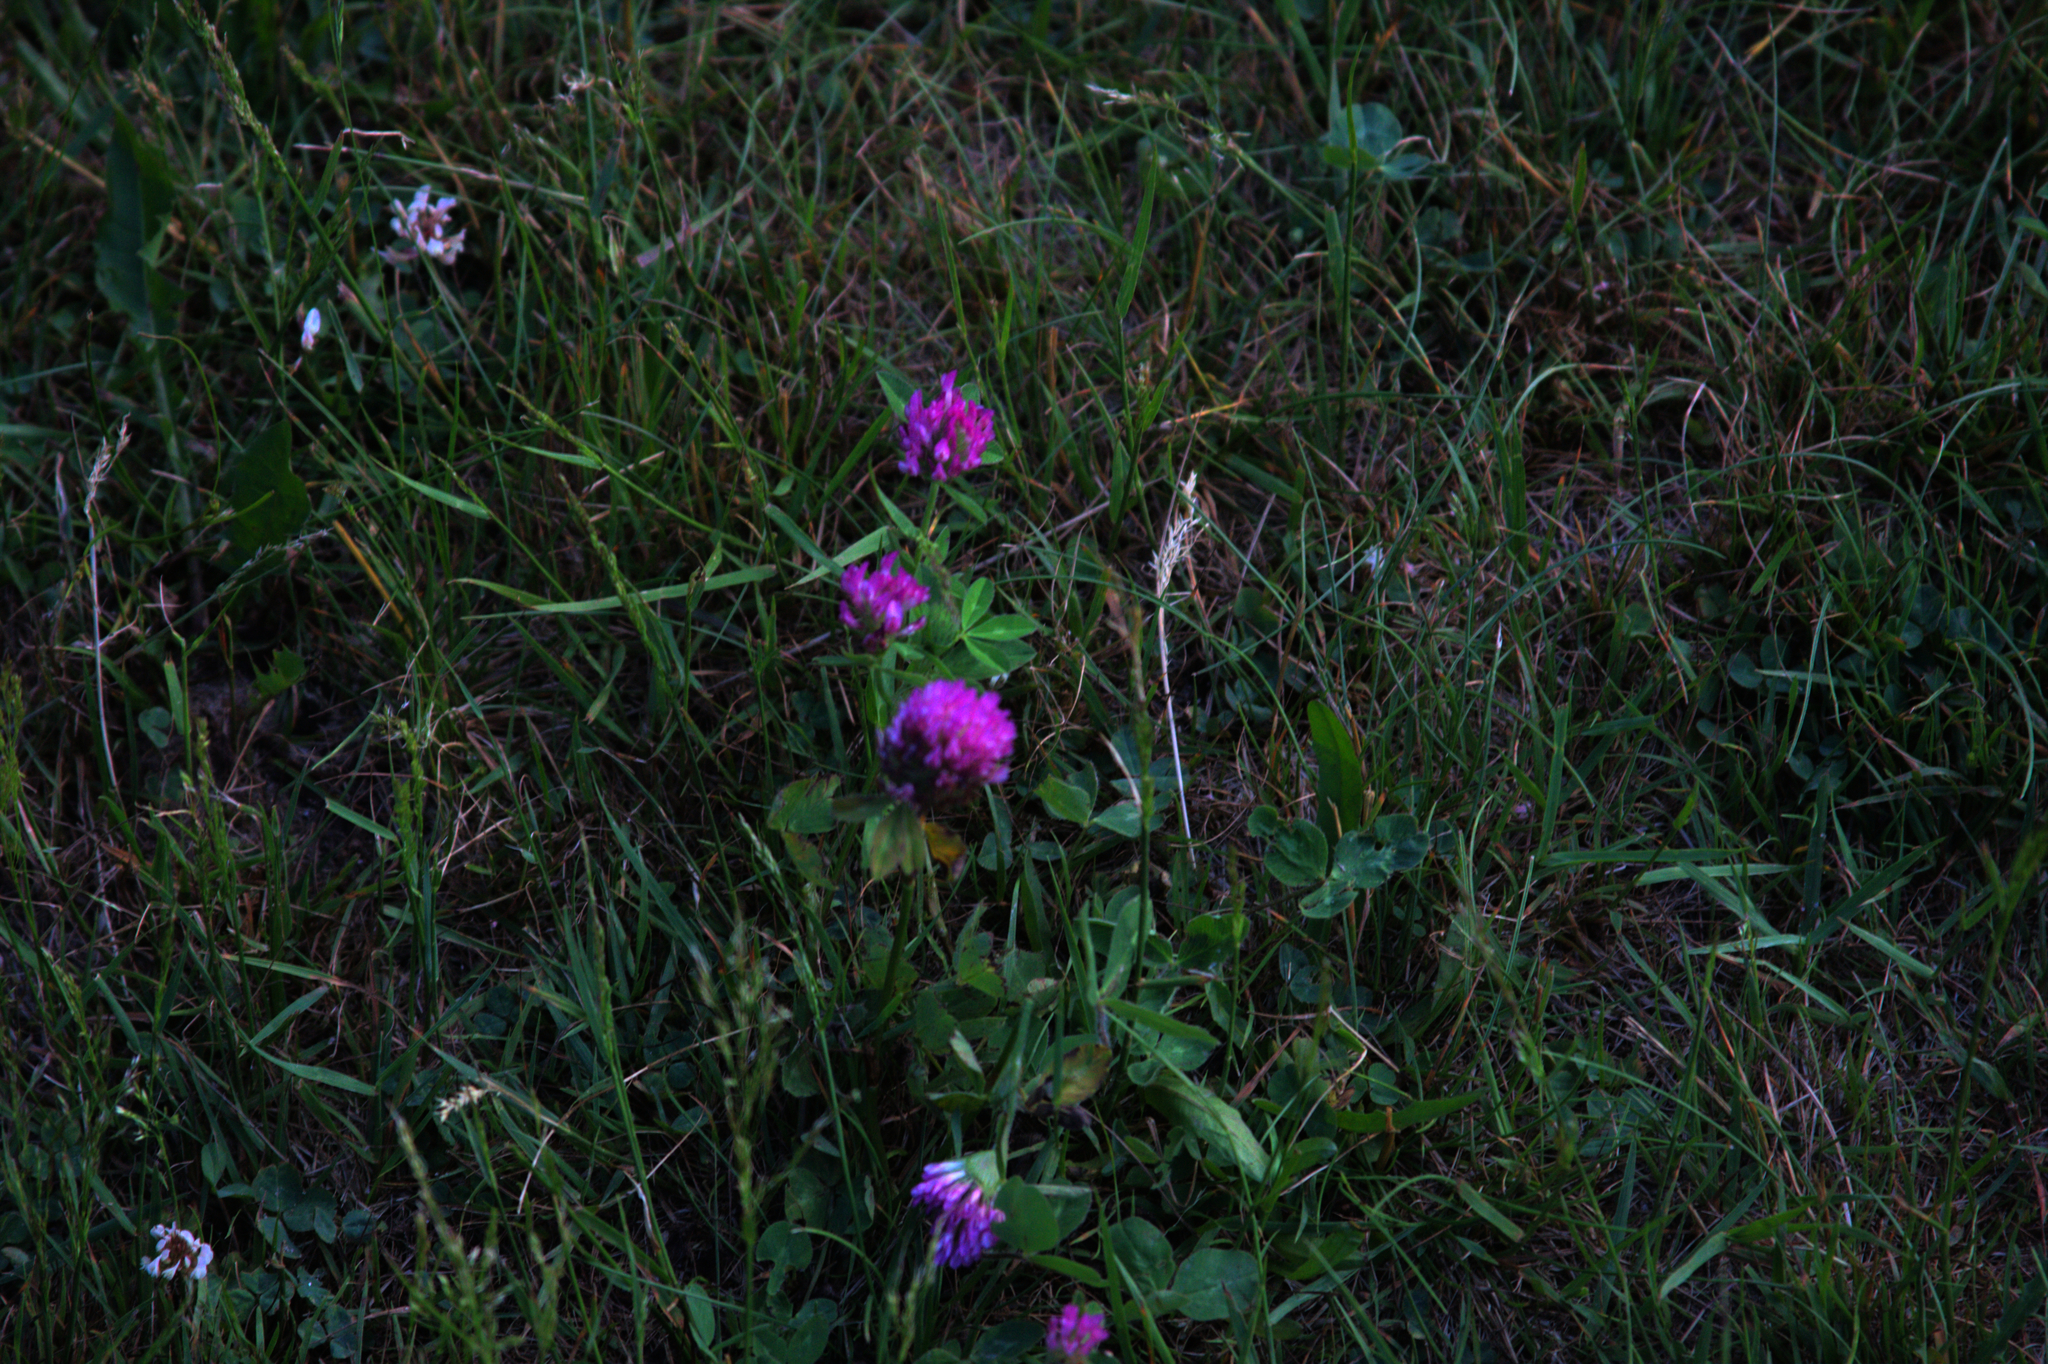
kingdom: Plantae
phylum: Tracheophyta
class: Magnoliopsida
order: Fabales
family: Fabaceae
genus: Trifolium
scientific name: Trifolium pratense
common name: Red clover
